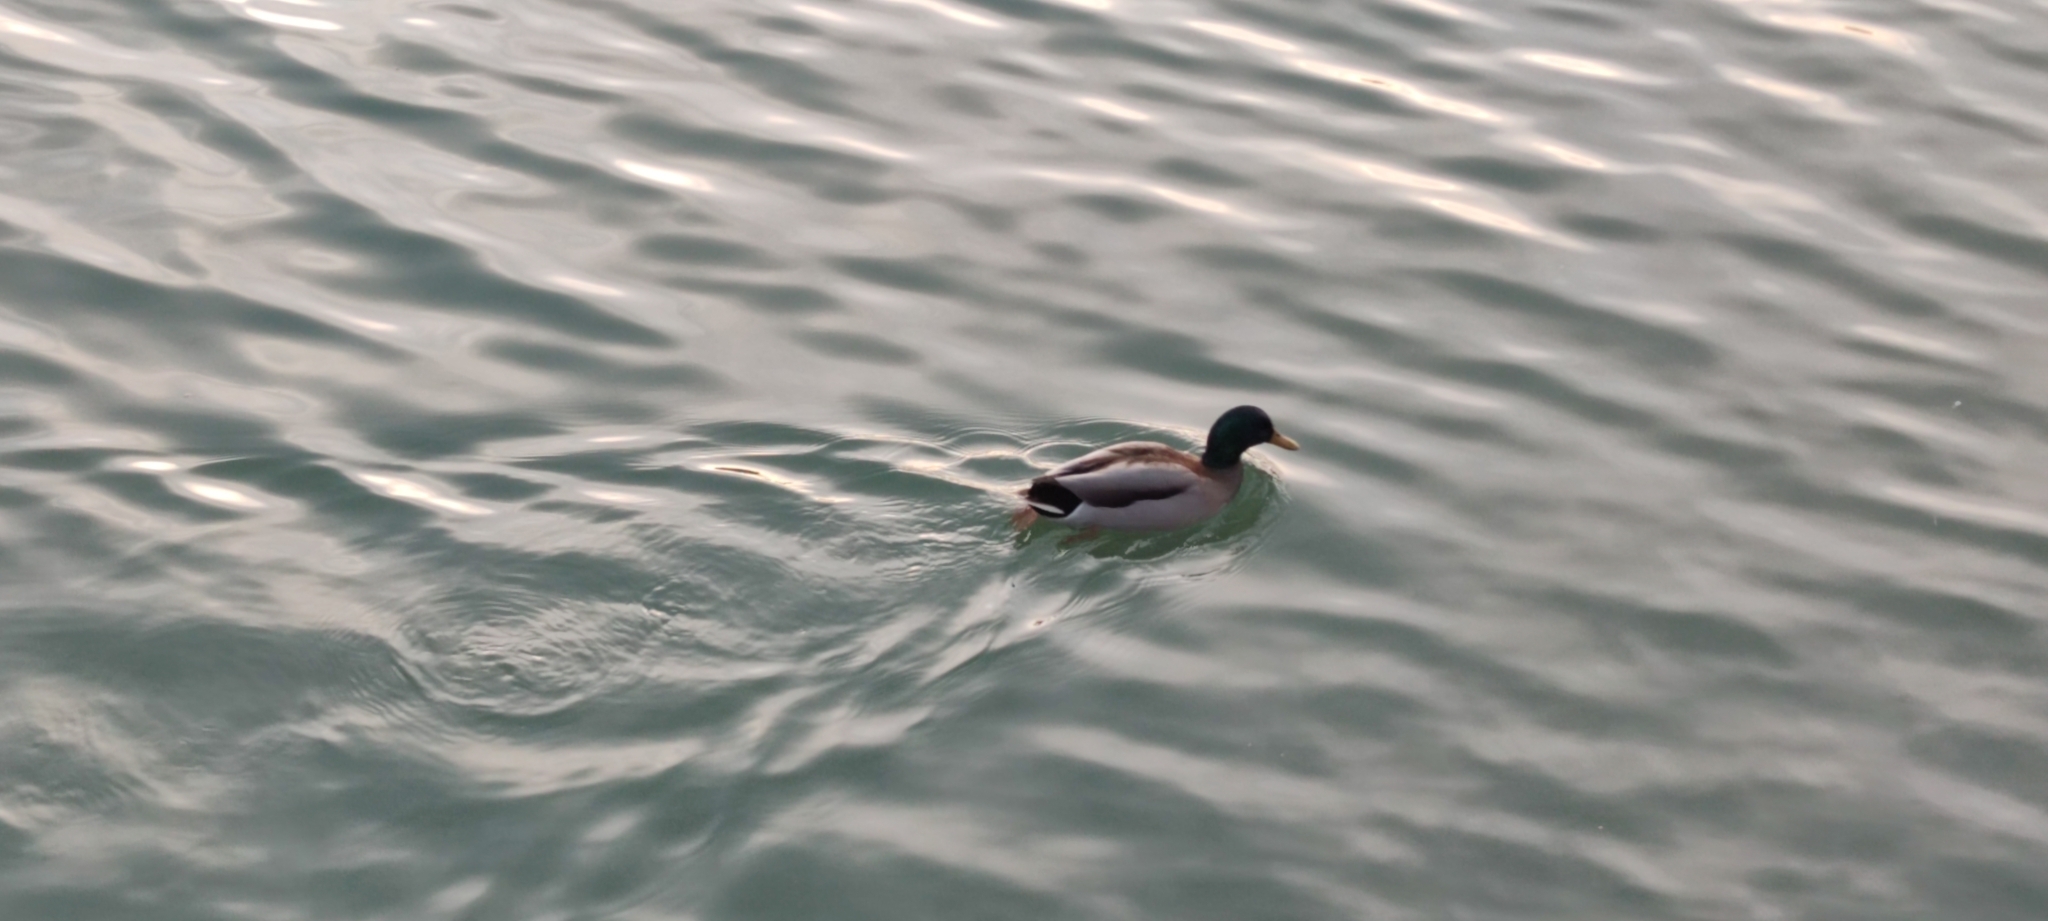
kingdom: Animalia
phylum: Chordata
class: Aves
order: Anseriformes
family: Anatidae
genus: Anas
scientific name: Anas platyrhynchos
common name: Mallard
